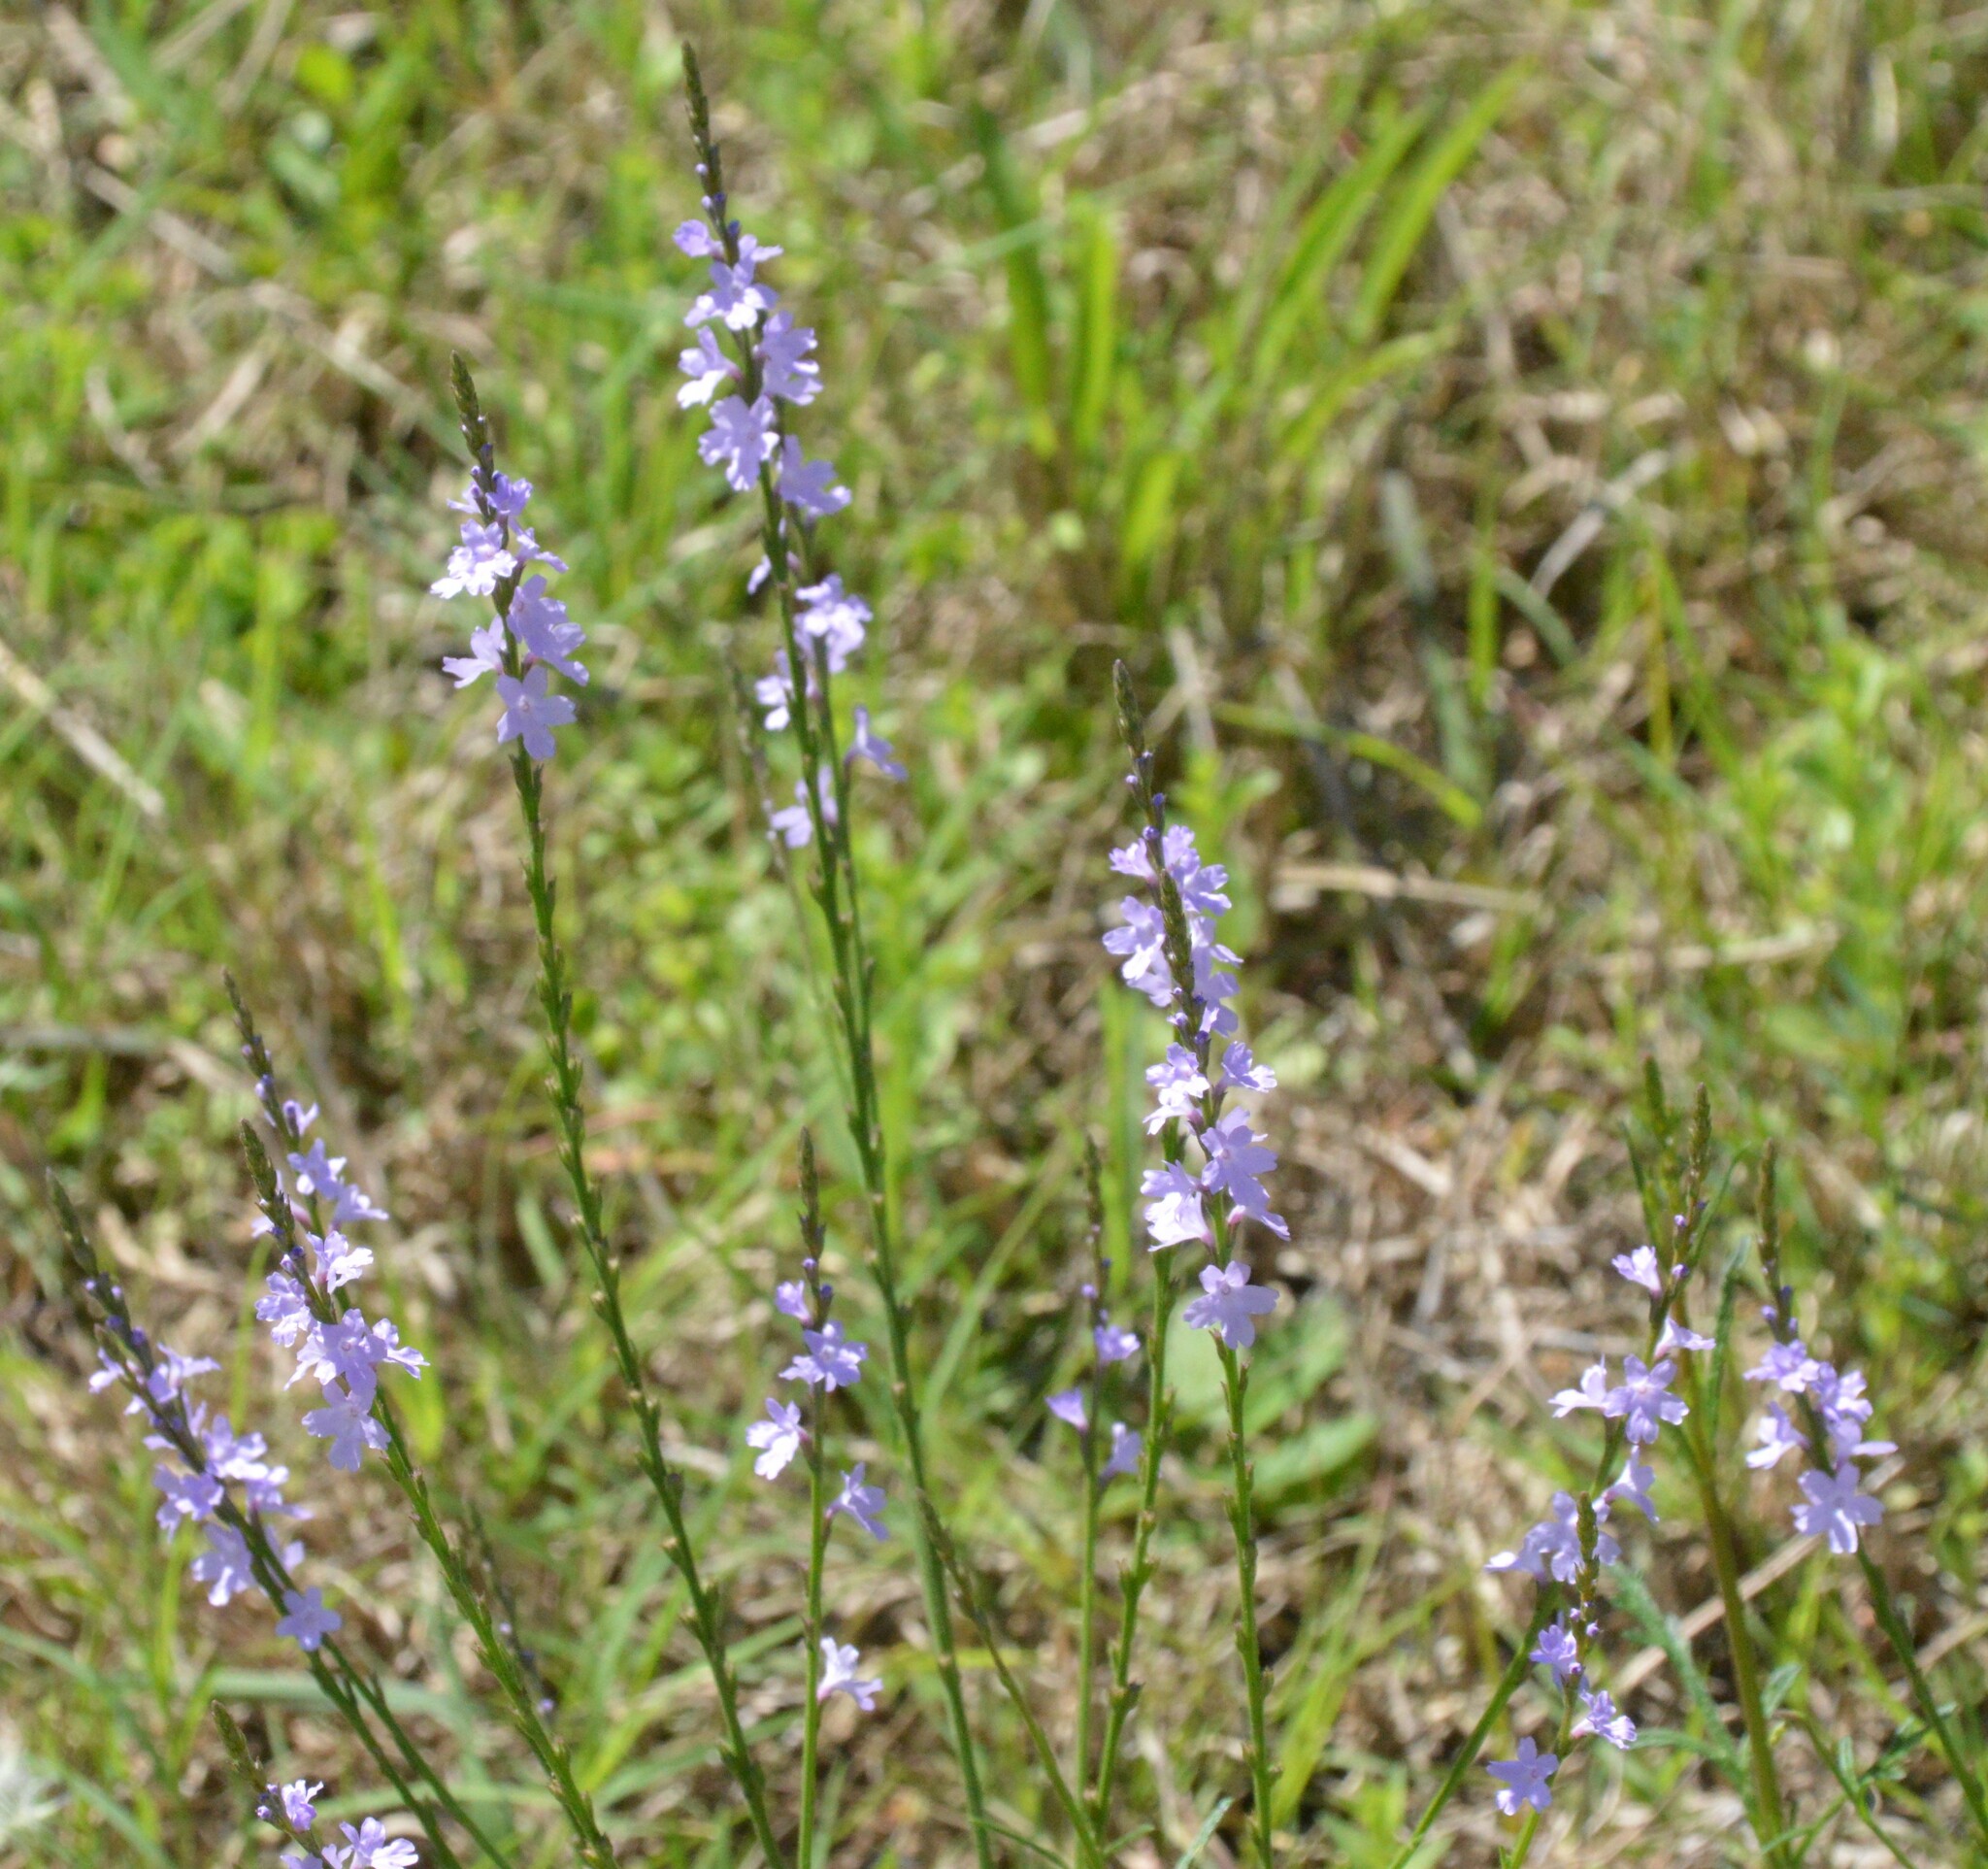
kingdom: Plantae
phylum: Tracheophyta
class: Magnoliopsida
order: Lamiales
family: Verbenaceae
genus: Verbena
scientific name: Verbena halei
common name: Texas vervain
